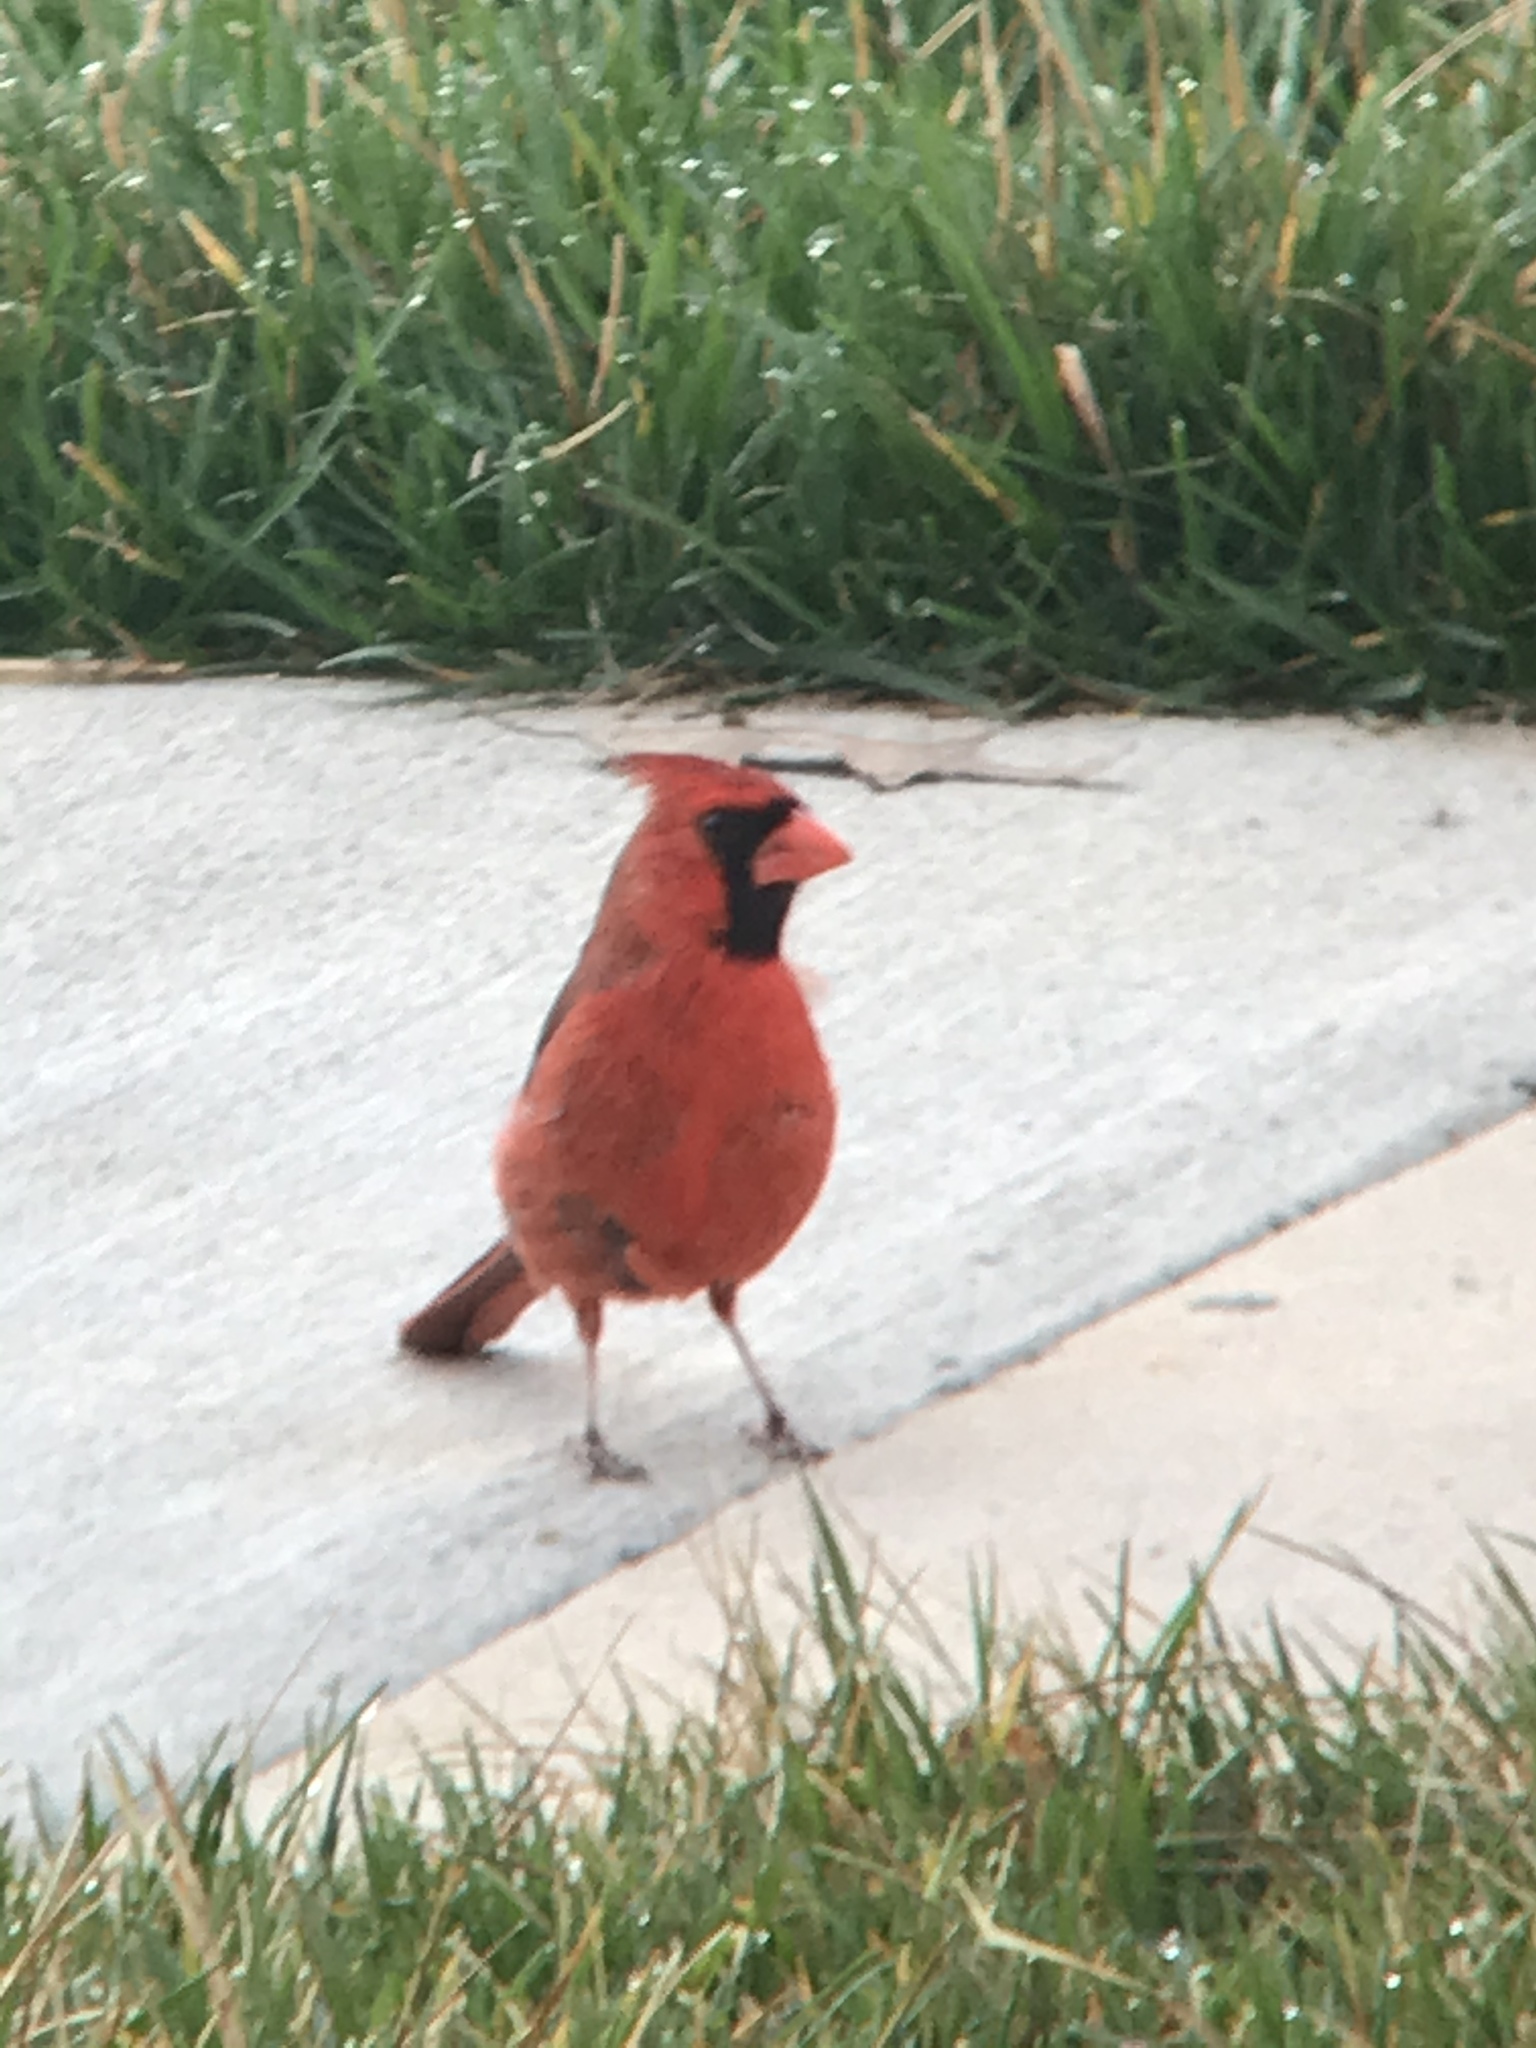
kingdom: Animalia
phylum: Chordata
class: Aves
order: Passeriformes
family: Cardinalidae
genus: Cardinalis
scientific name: Cardinalis cardinalis
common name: Northern cardinal
